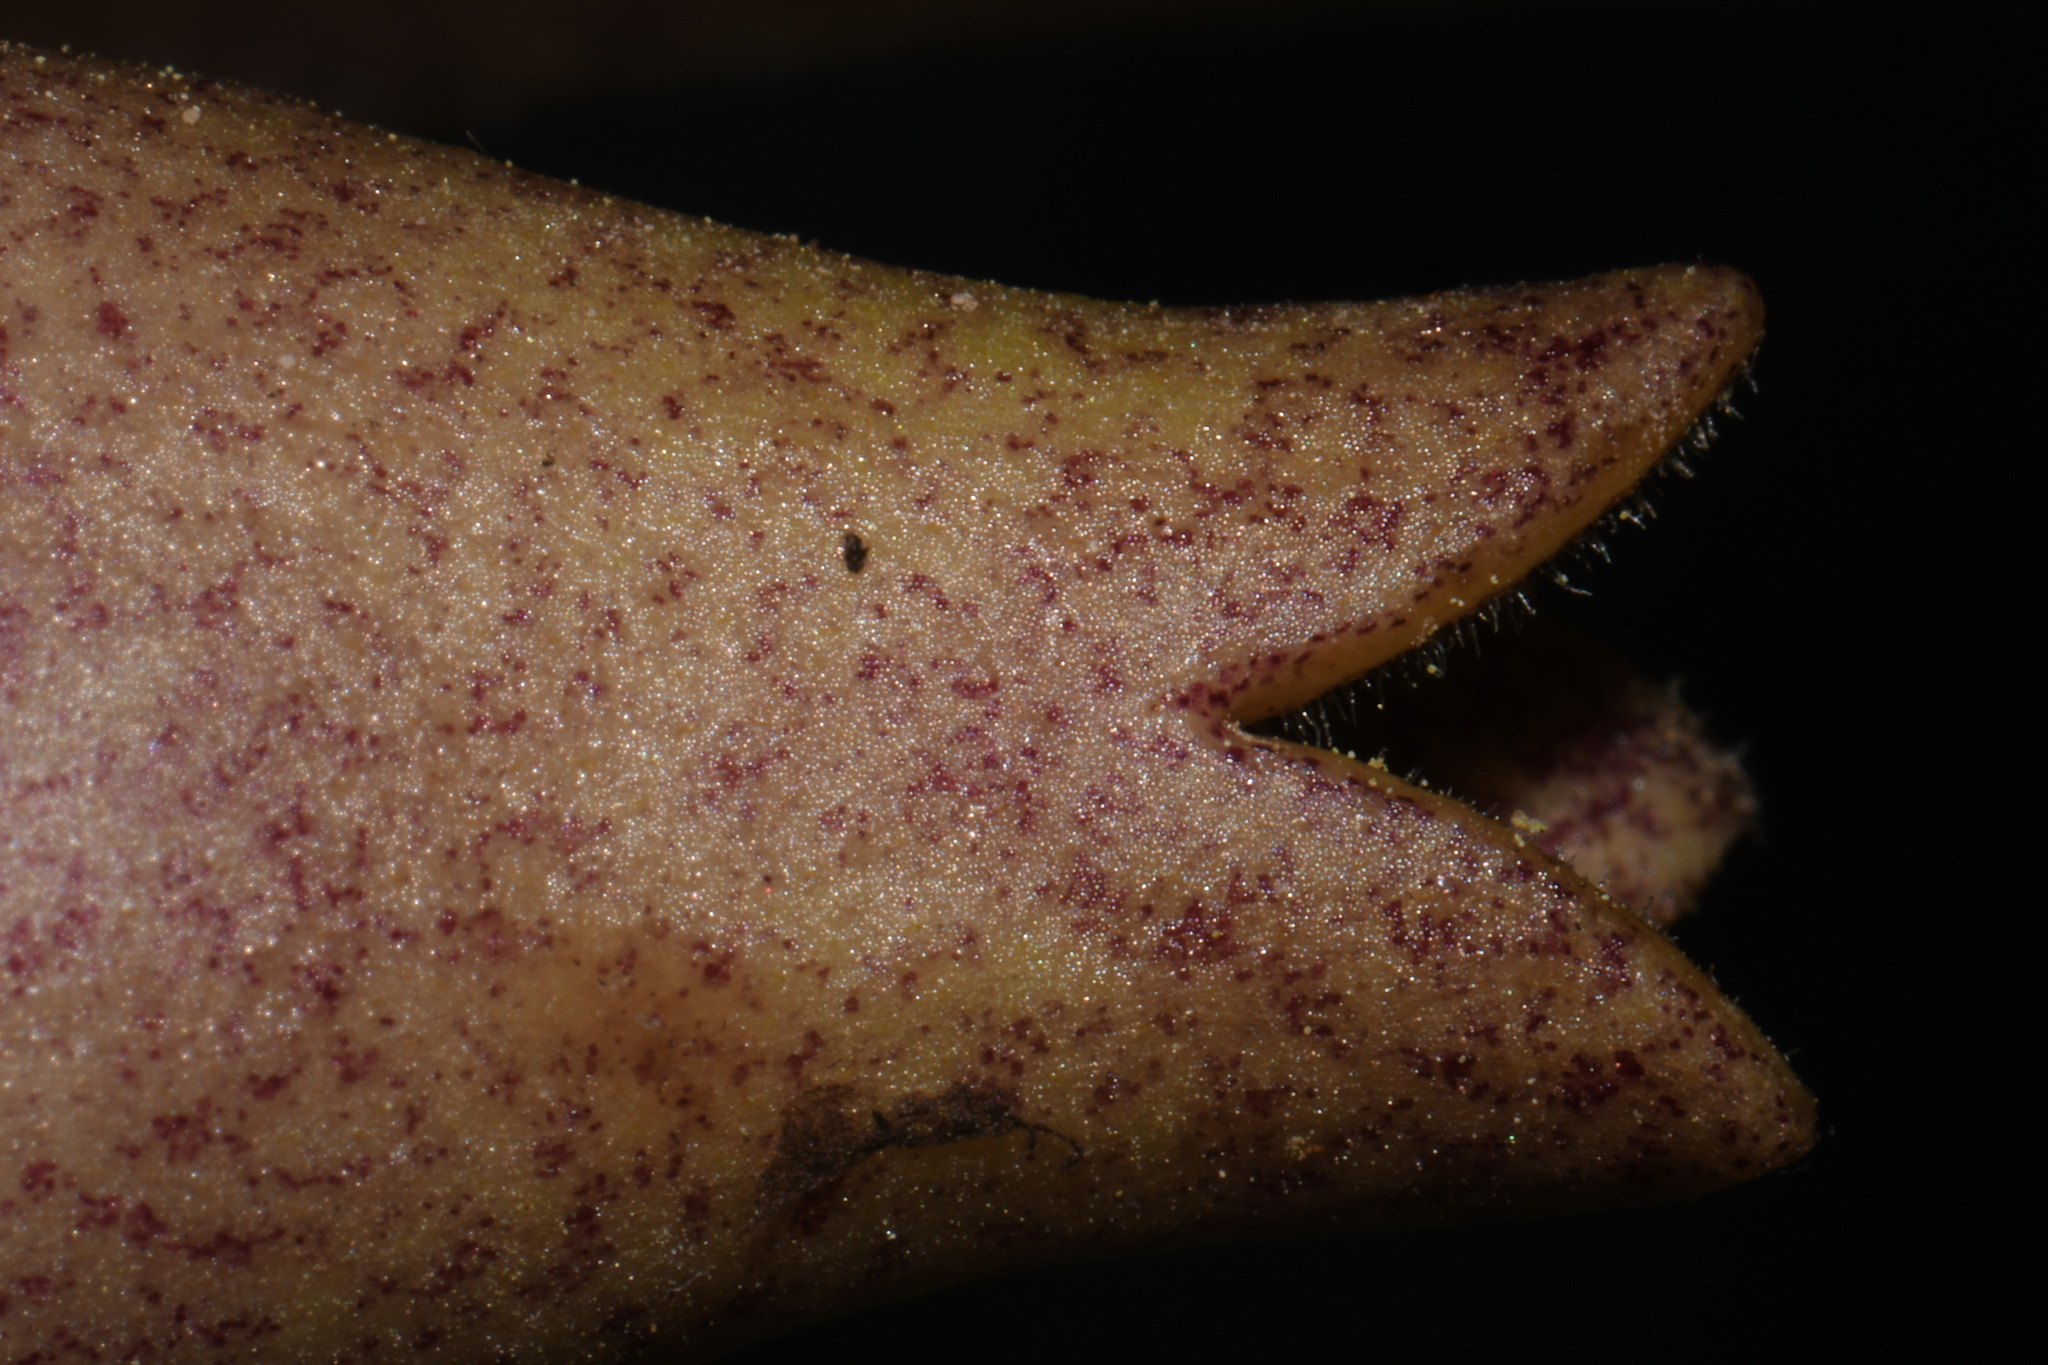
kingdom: Plantae
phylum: Tracheophyta
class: Magnoliopsida
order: Piperales
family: Aristolochiaceae
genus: Hexastylis
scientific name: Hexastylis arifolia
